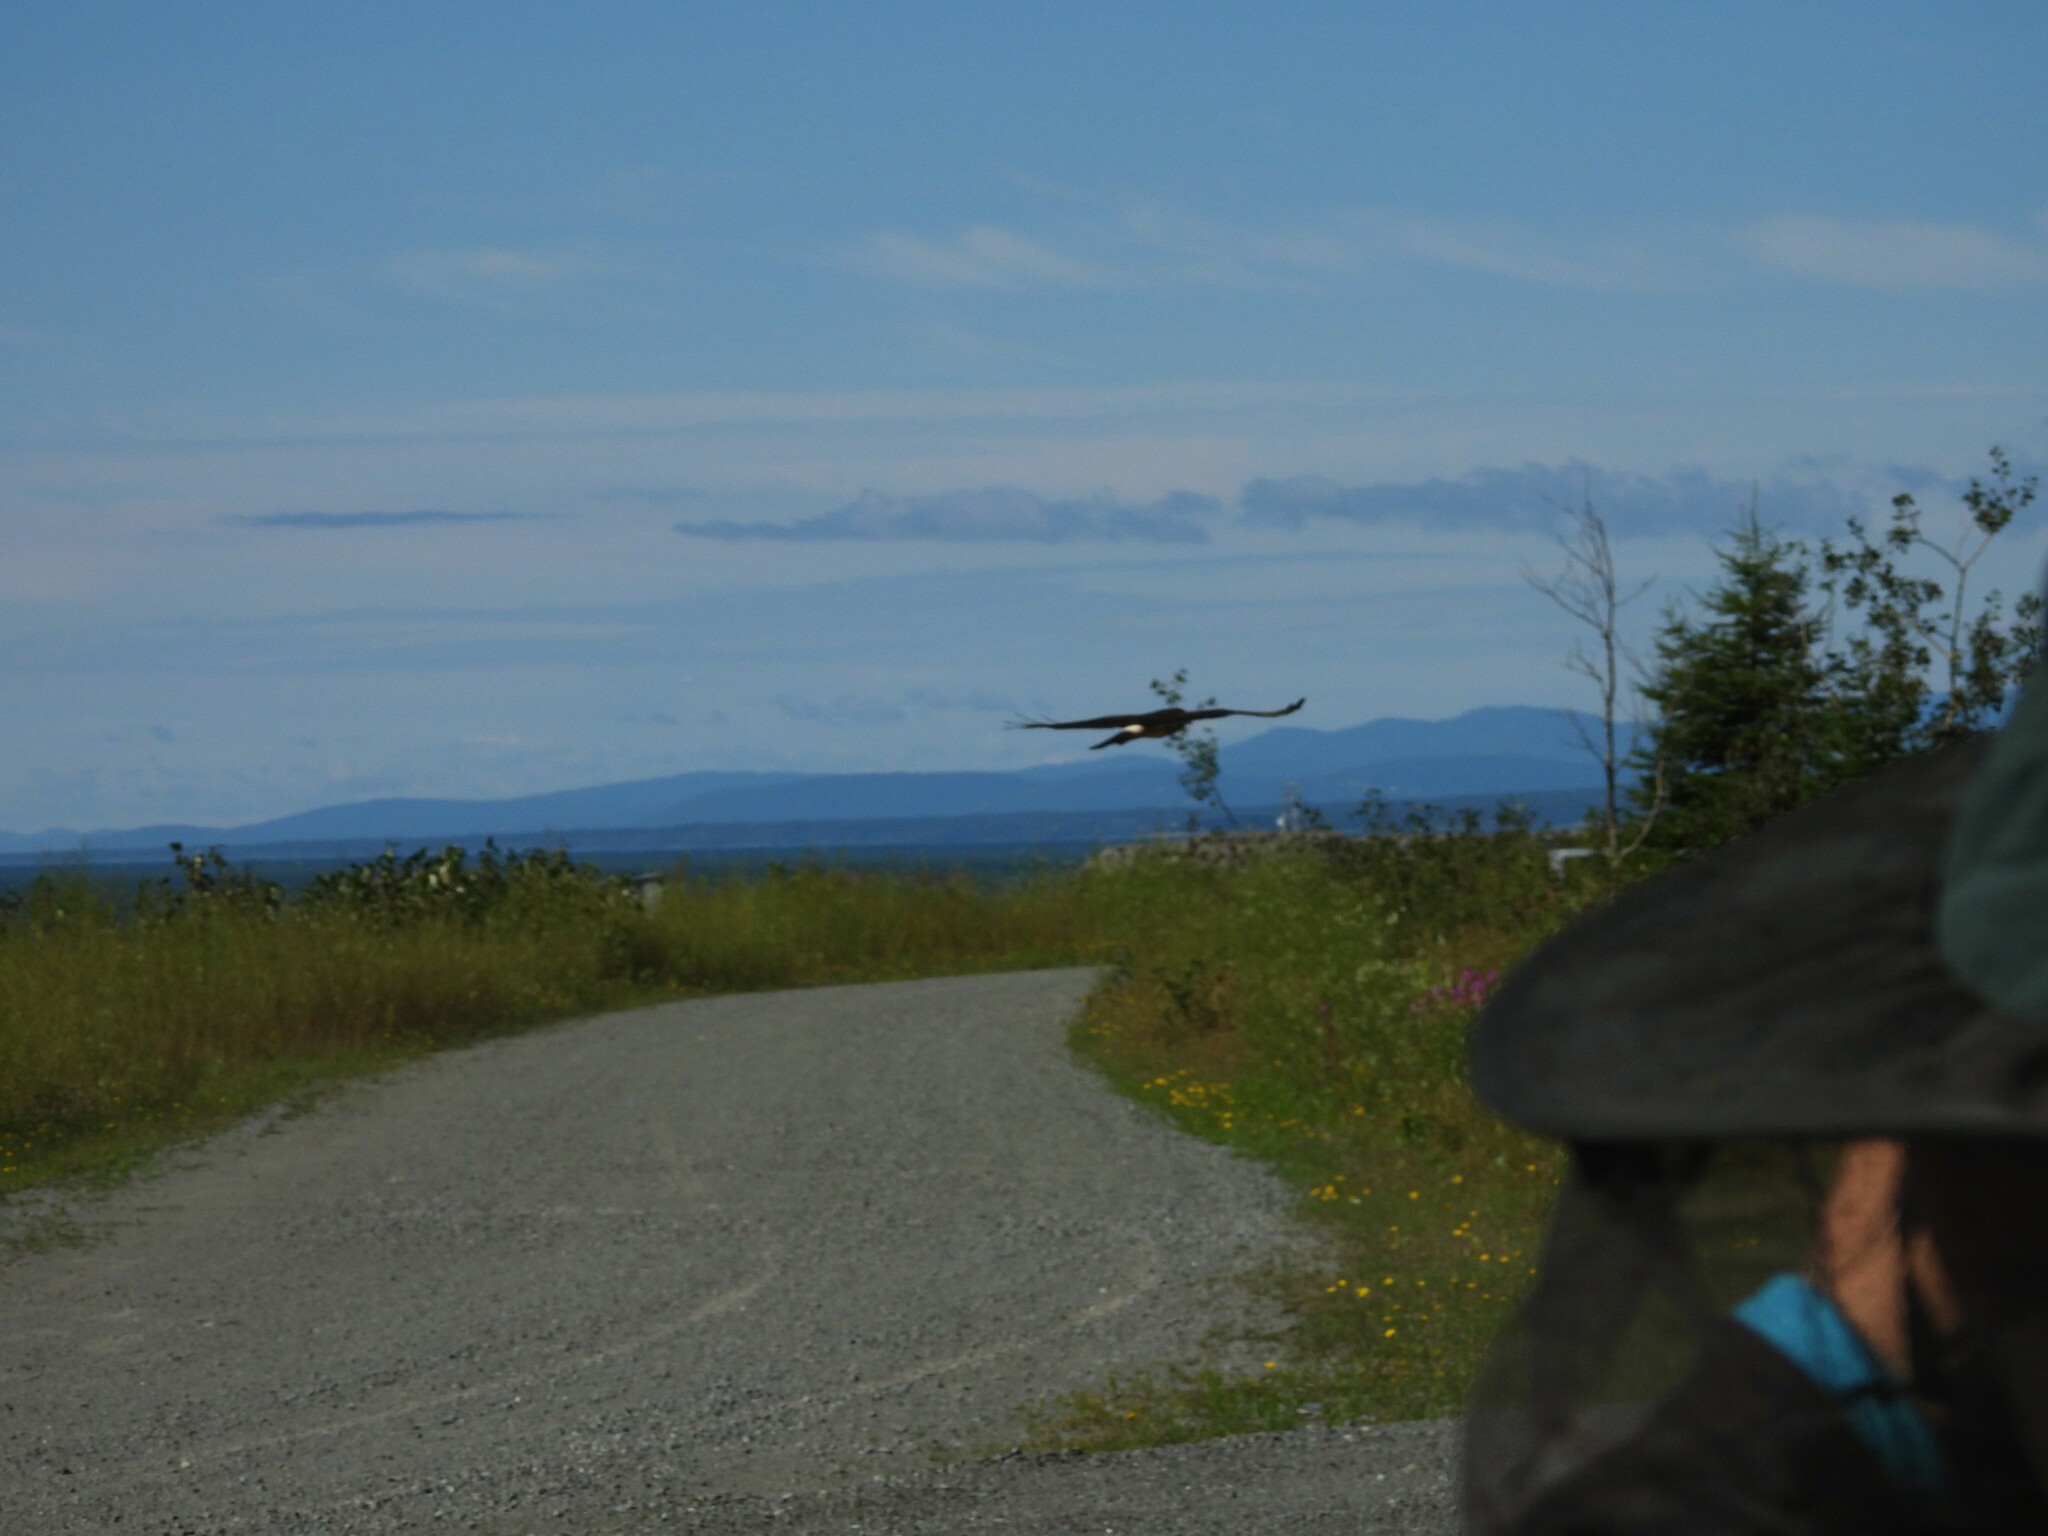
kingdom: Animalia
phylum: Chordata
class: Aves
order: Accipitriformes
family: Accipitridae
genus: Circus
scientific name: Circus cyaneus
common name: Hen harrier
